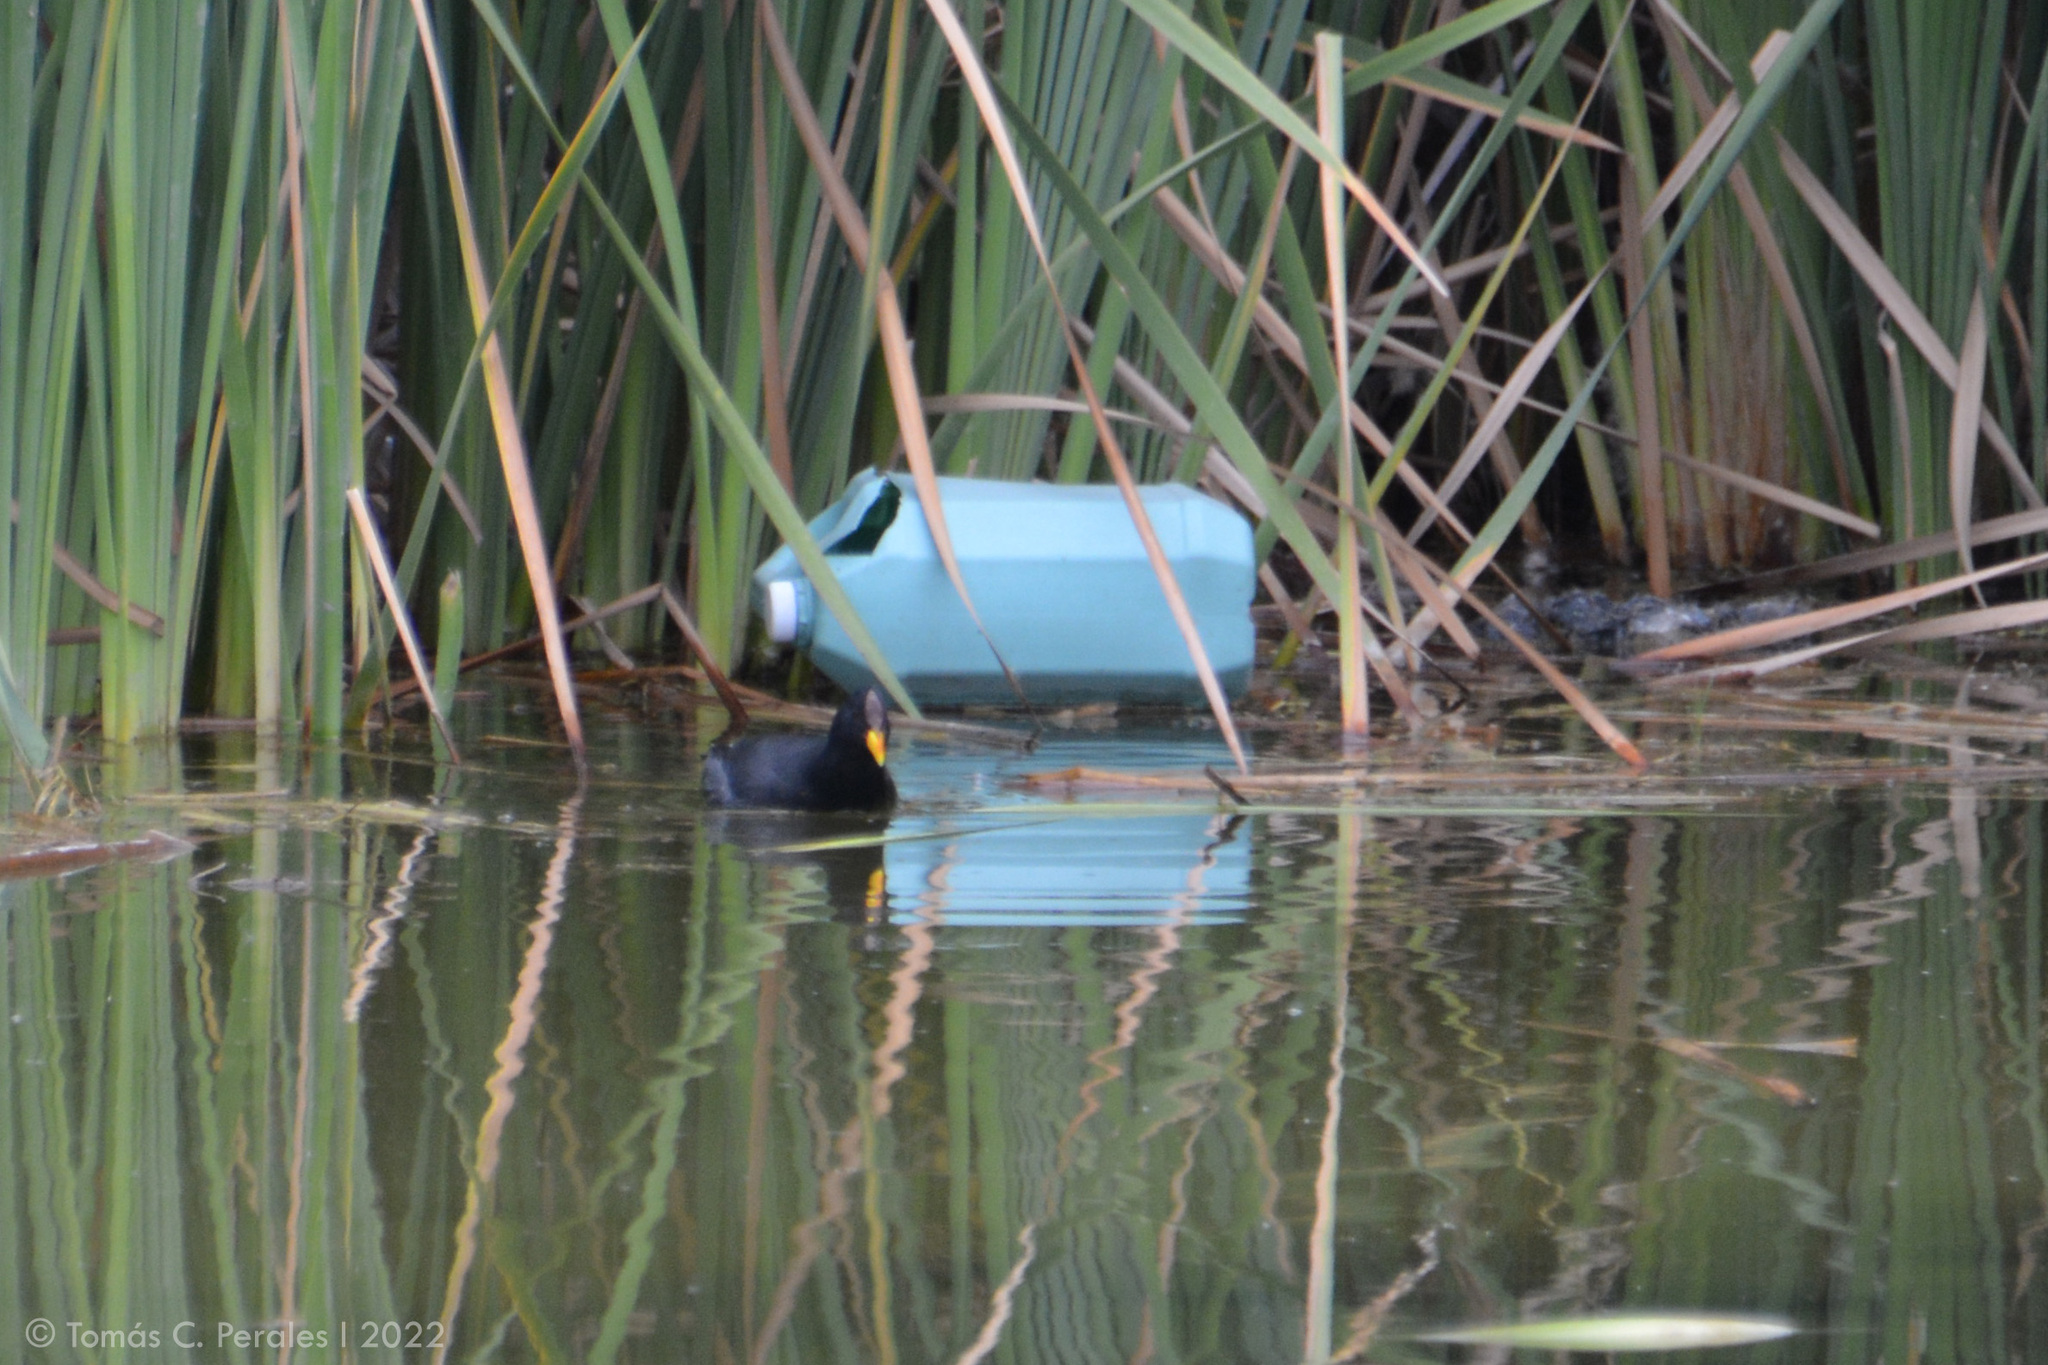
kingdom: Animalia
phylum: Chordata
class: Aves
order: Gruiformes
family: Rallidae
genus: Fulica
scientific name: Fulica rufifrons
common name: Red-fronted coot
